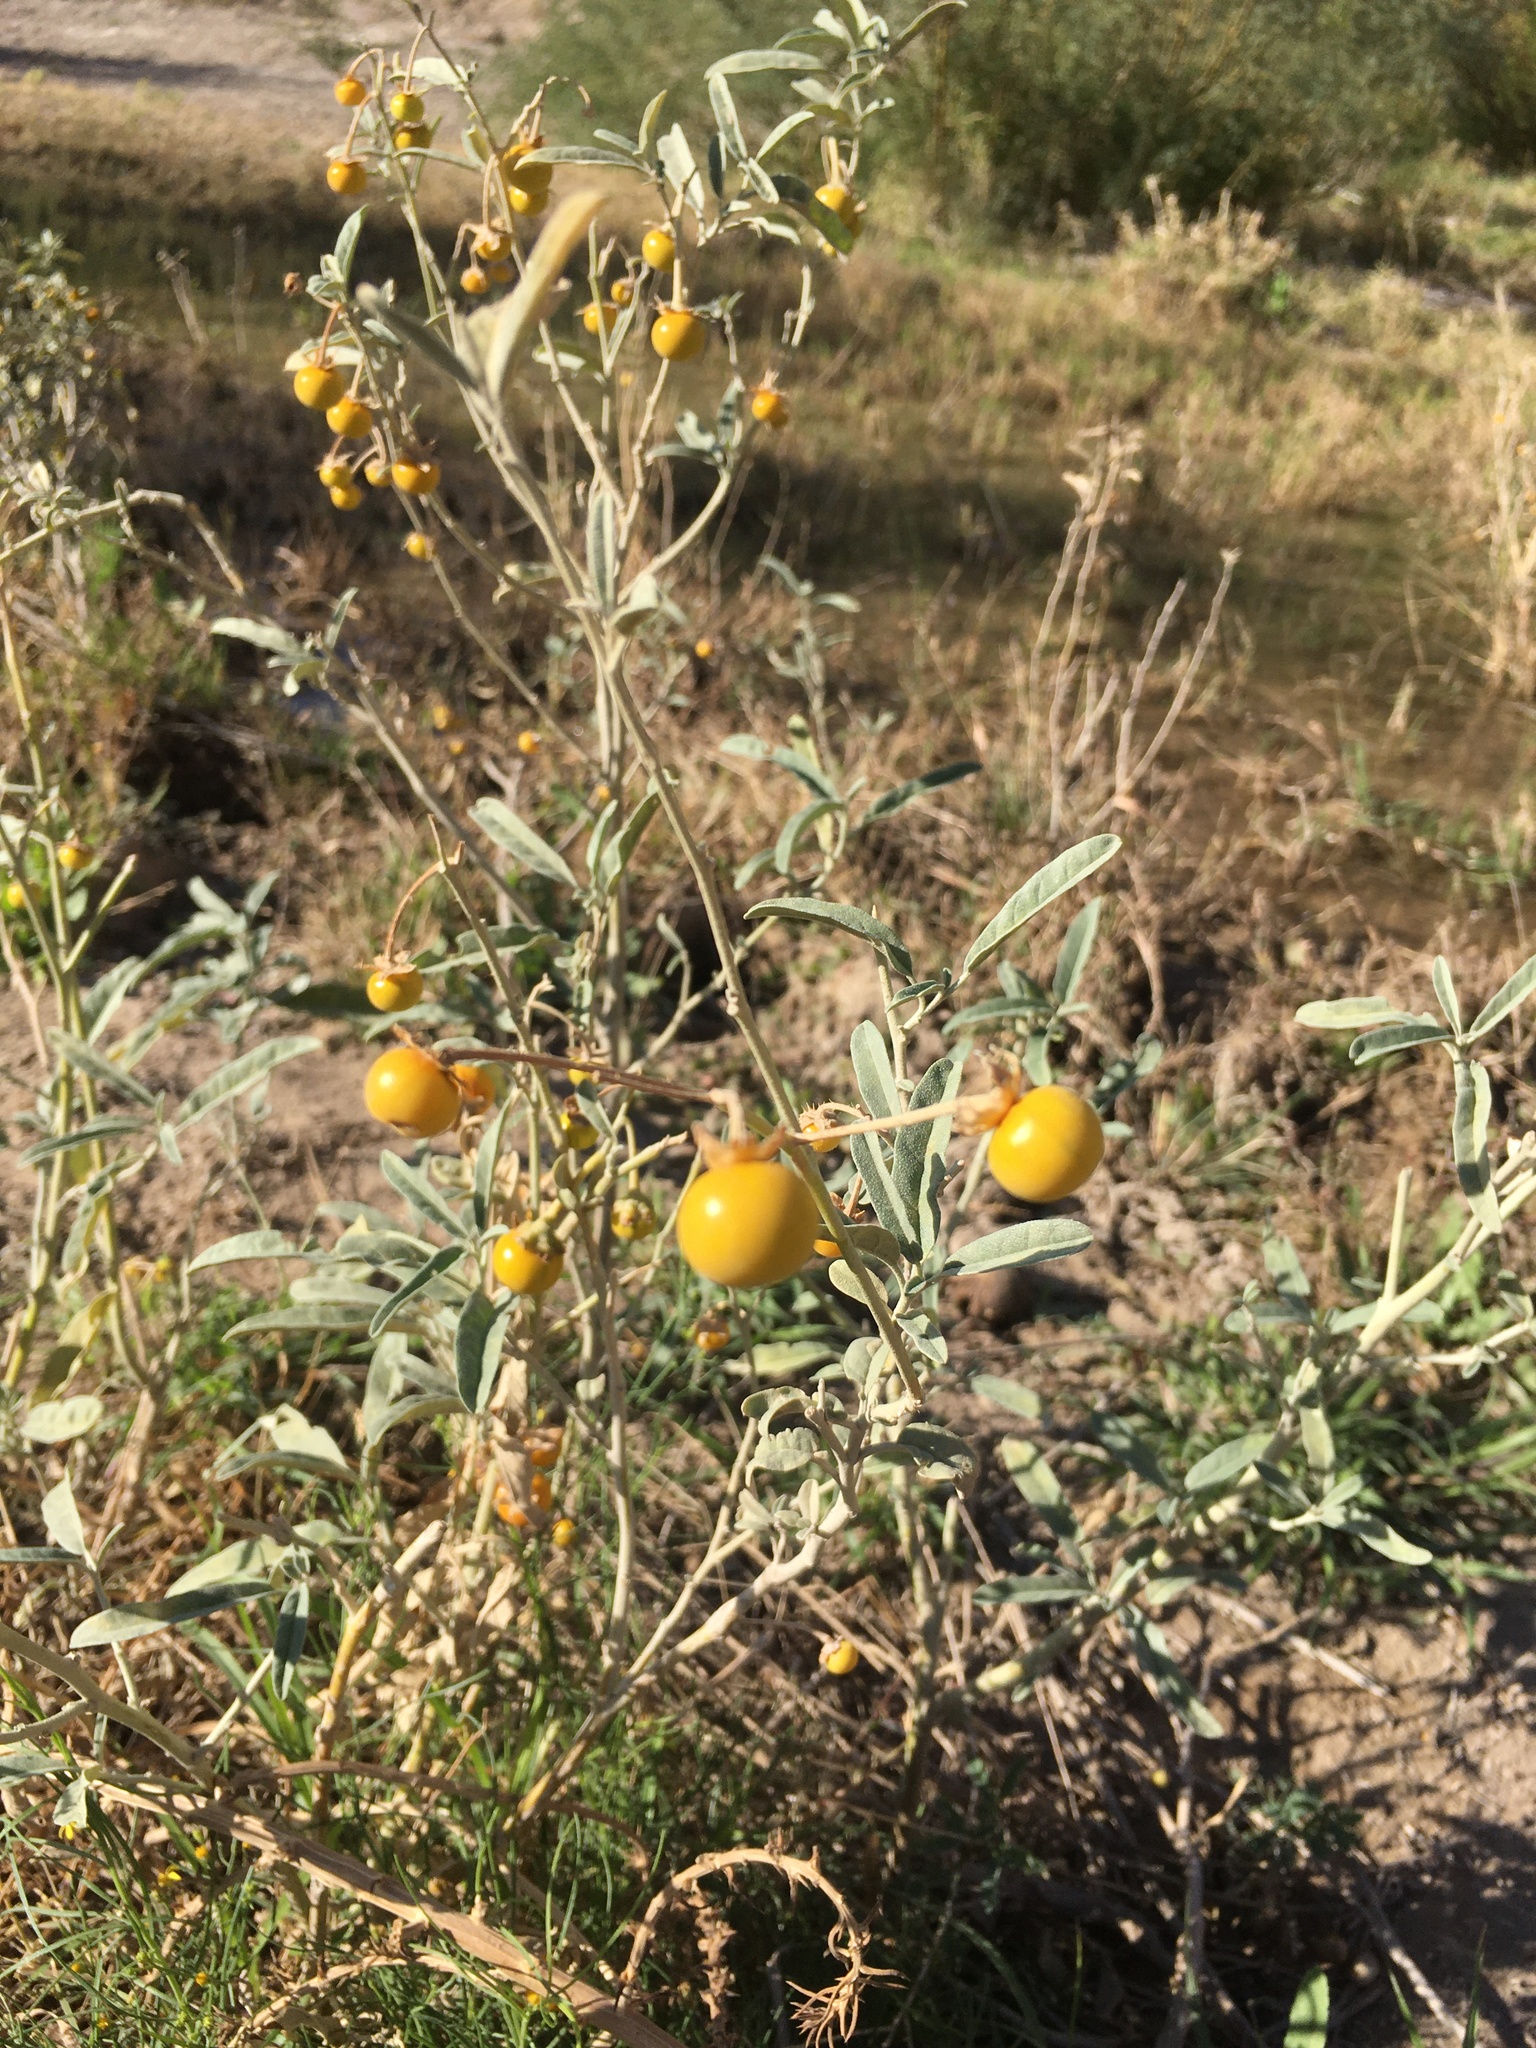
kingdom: Plantae
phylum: Tracheophyta
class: Magnoliopsida
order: Solanales
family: Solanaceae
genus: Solanum
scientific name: Solanum elaeagnifolium
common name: Silverleaf nightshade
